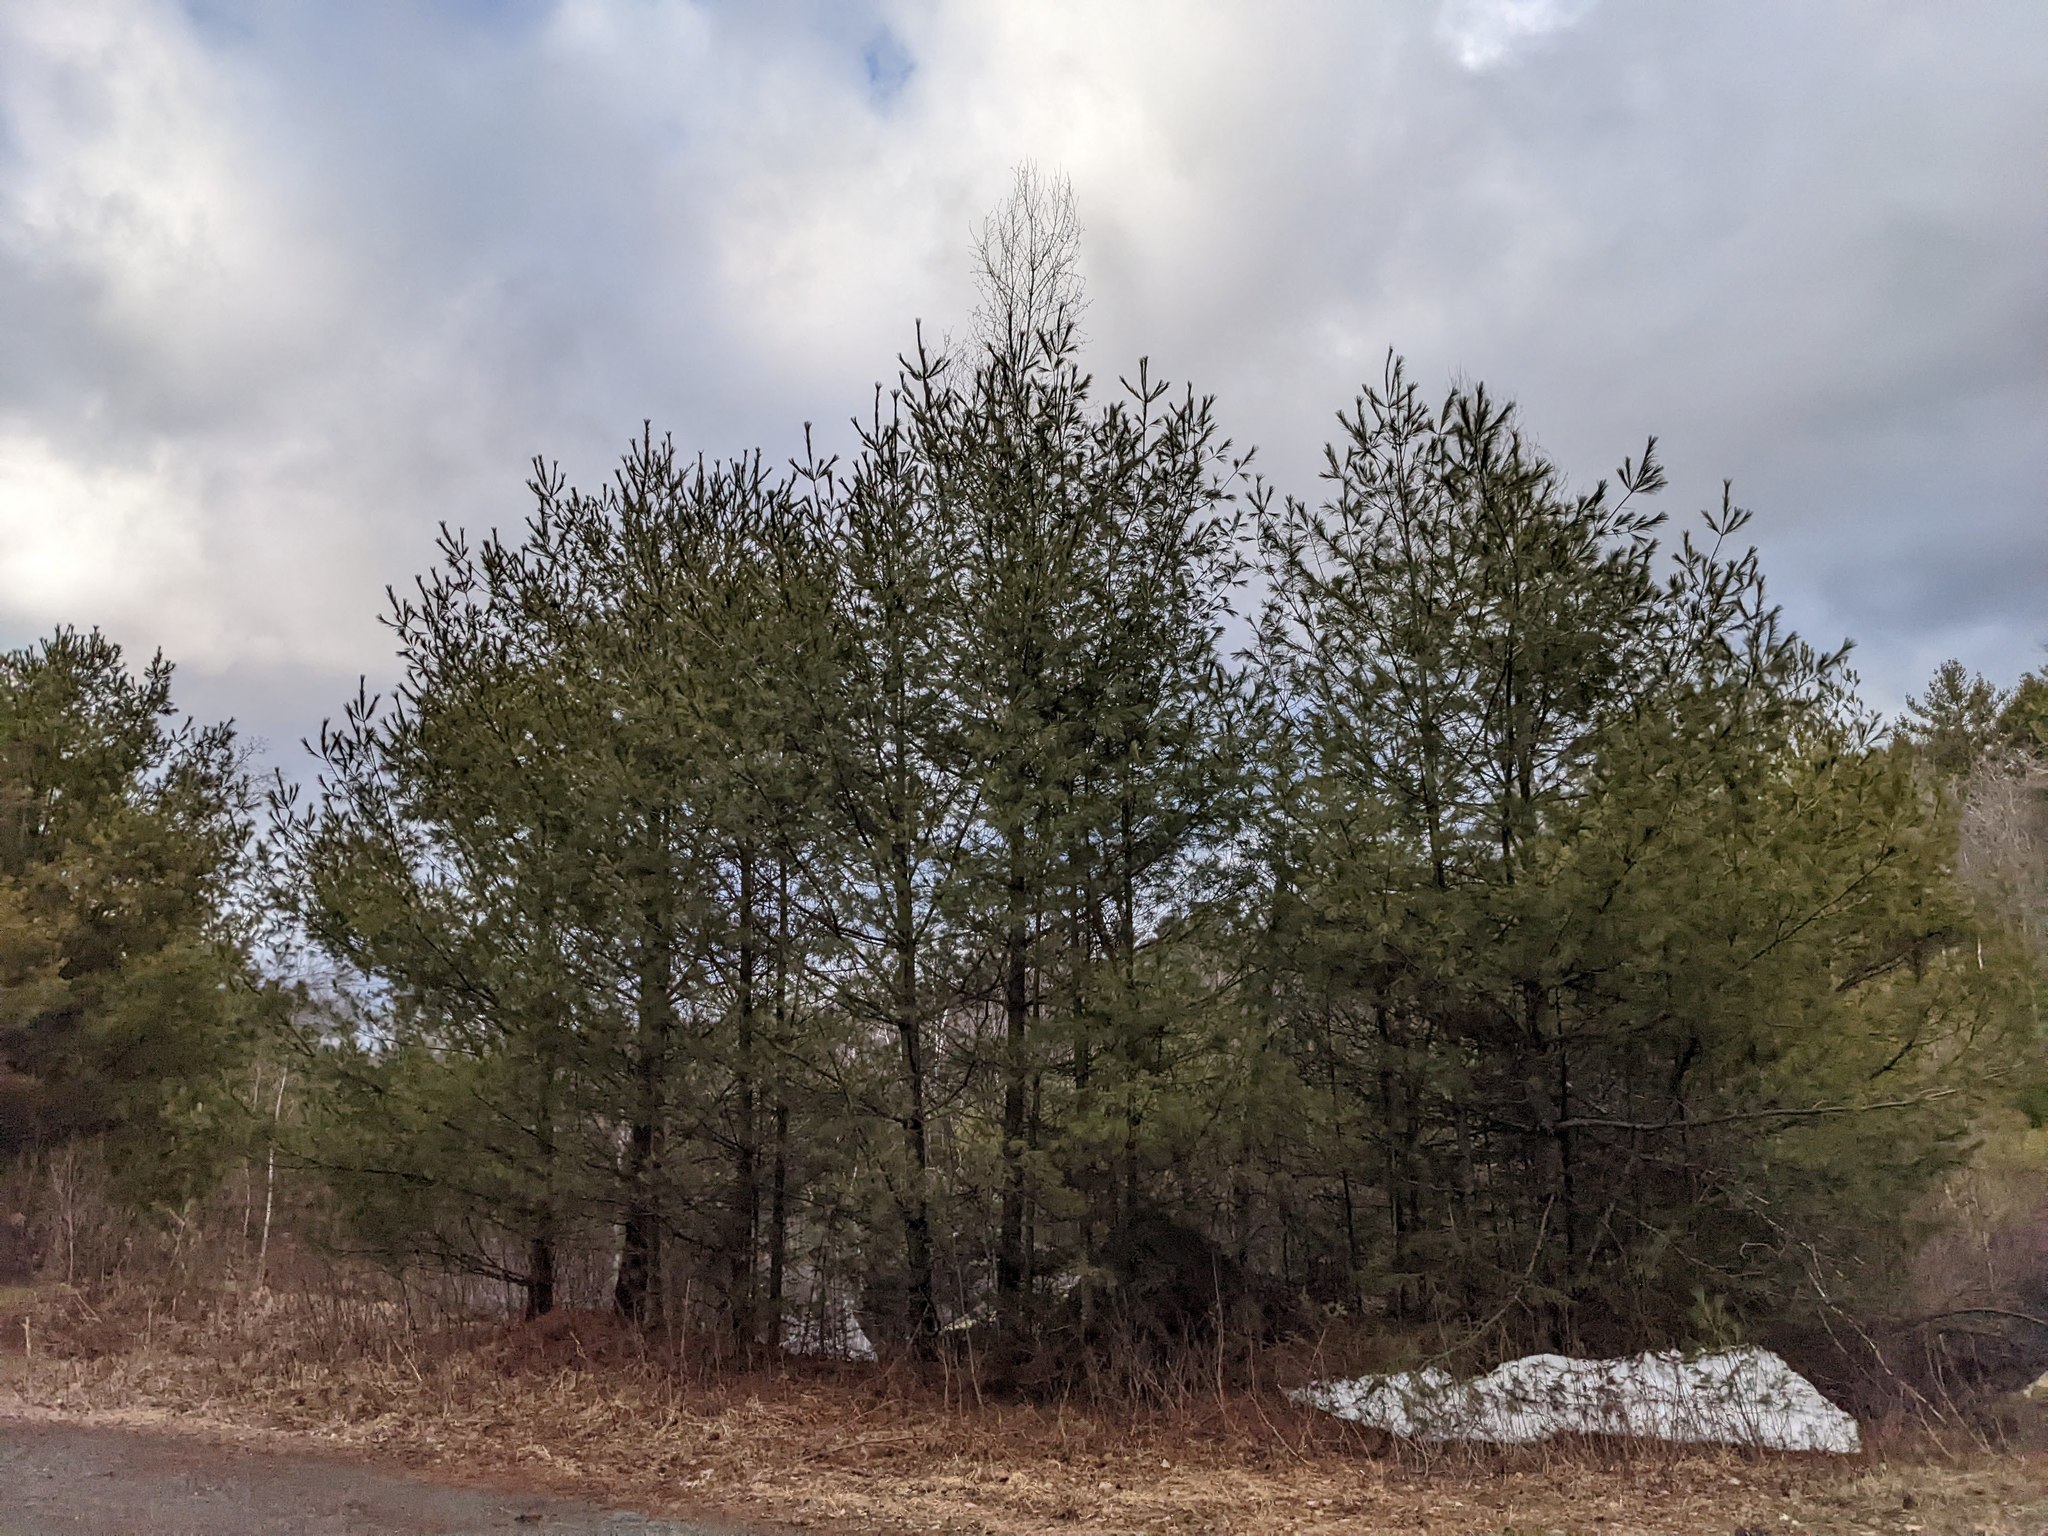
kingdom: Plantae
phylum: Tracheophyta
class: Pinopsida
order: Pinales
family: Pinaceae
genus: Pinus
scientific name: Pinus strobus
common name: Weymouth pine
